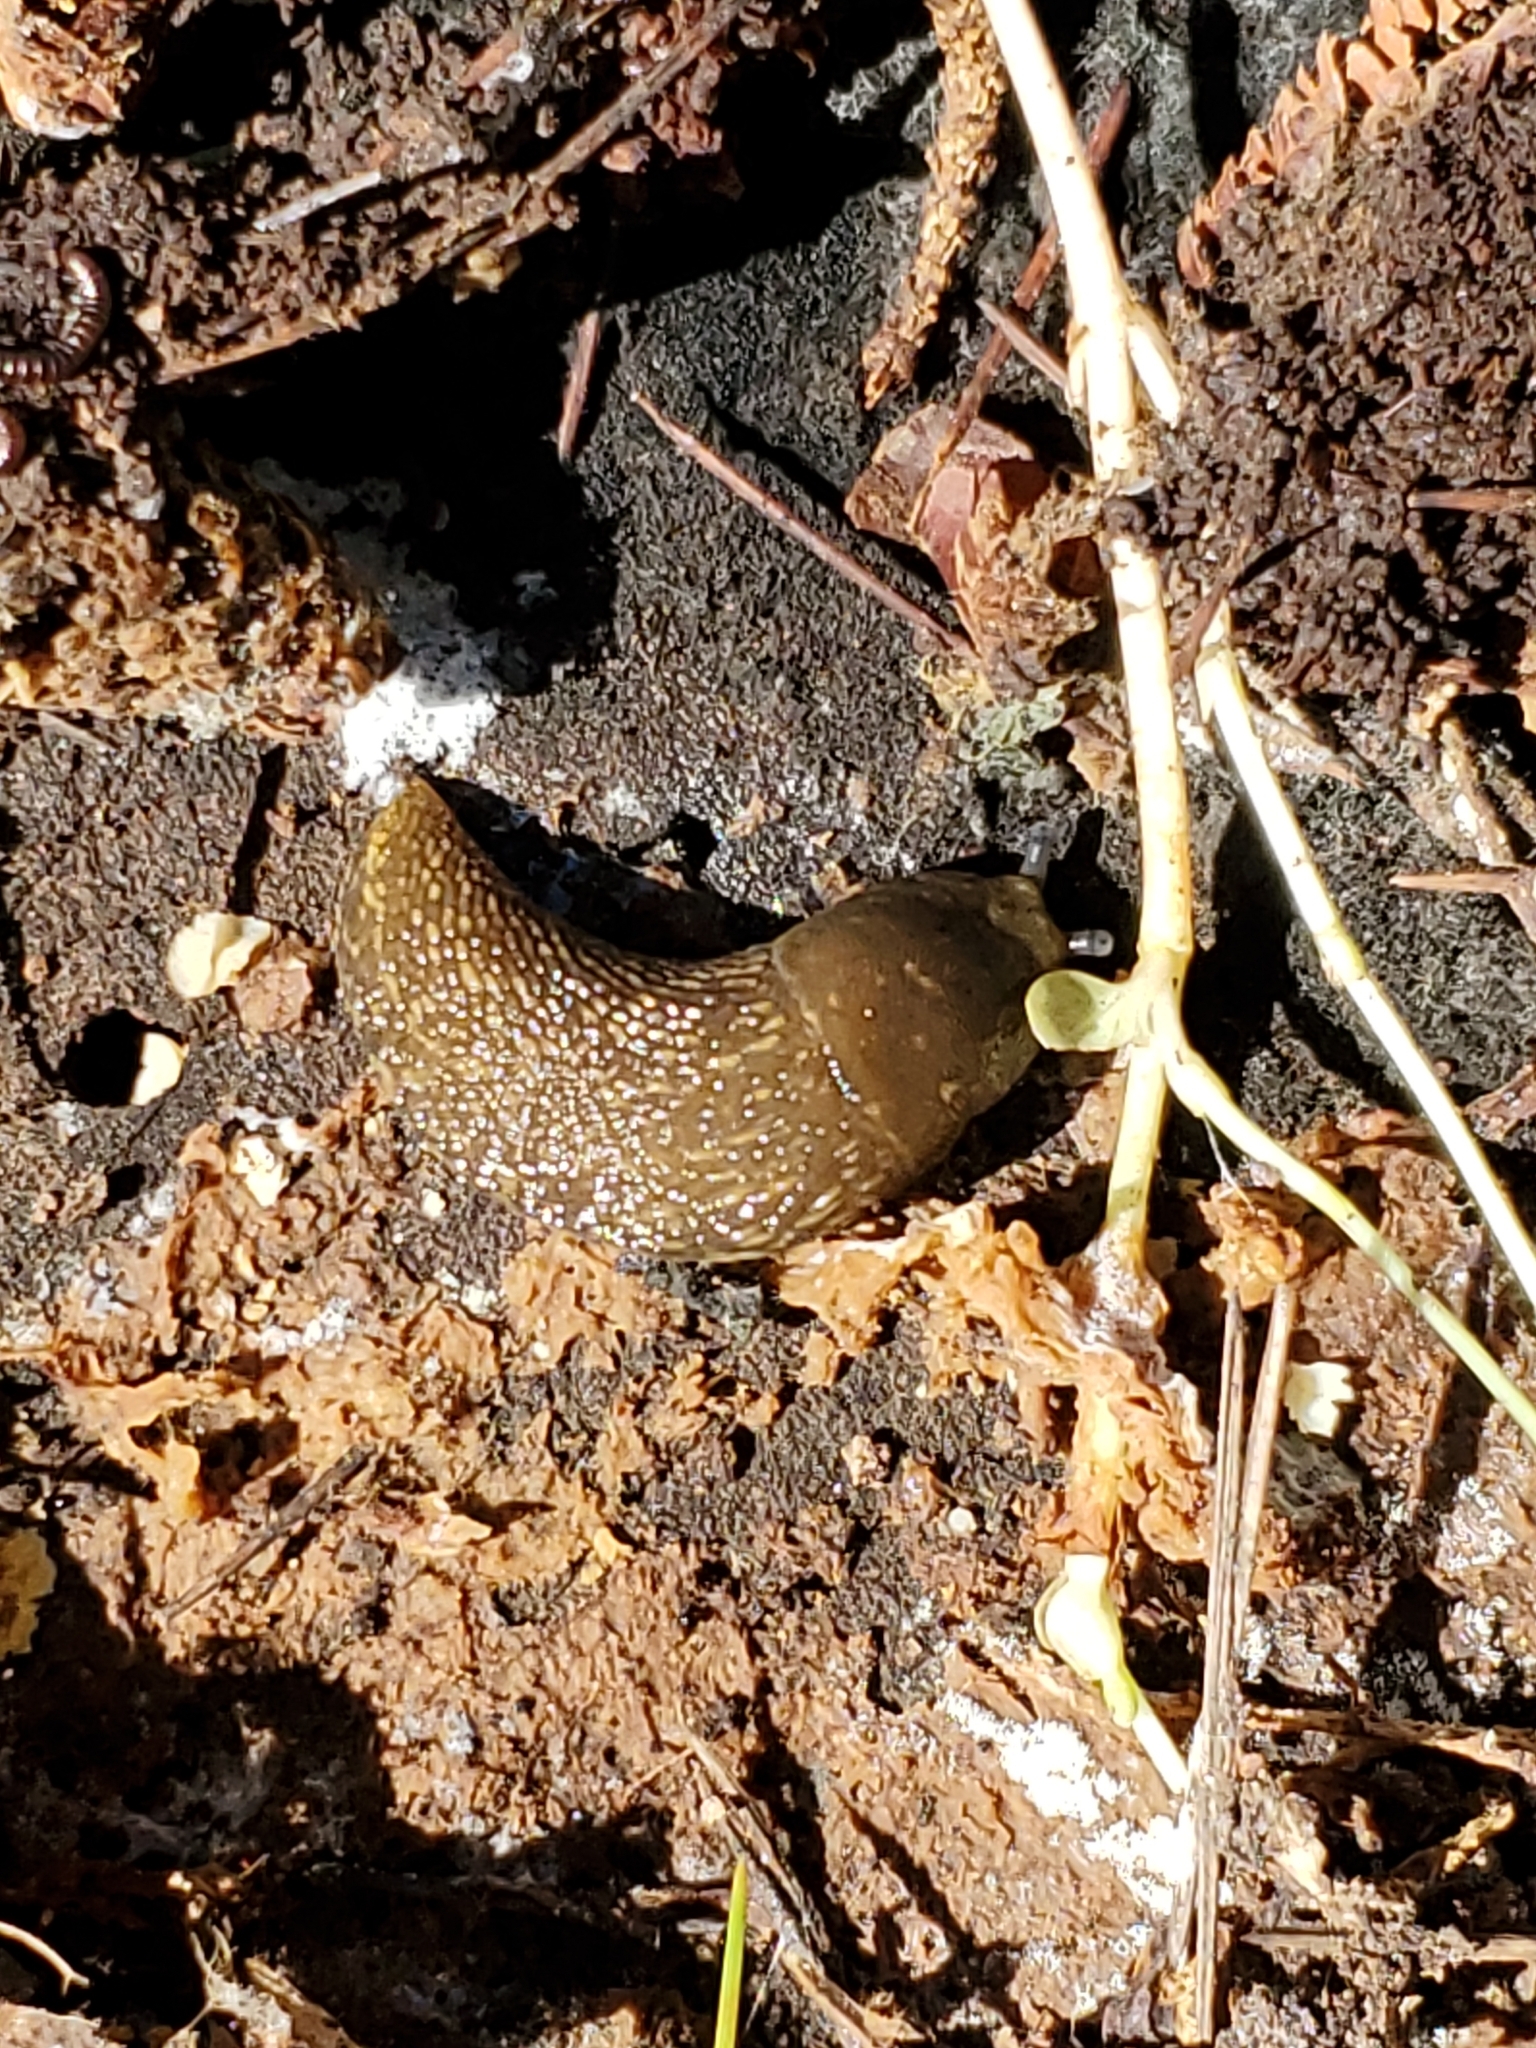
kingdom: Animalia
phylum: Mollusca
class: Gastropoda
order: Stylommatophora
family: Limacidae
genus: Limacus
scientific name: Limacus flavus
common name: Yellow gardenslug
